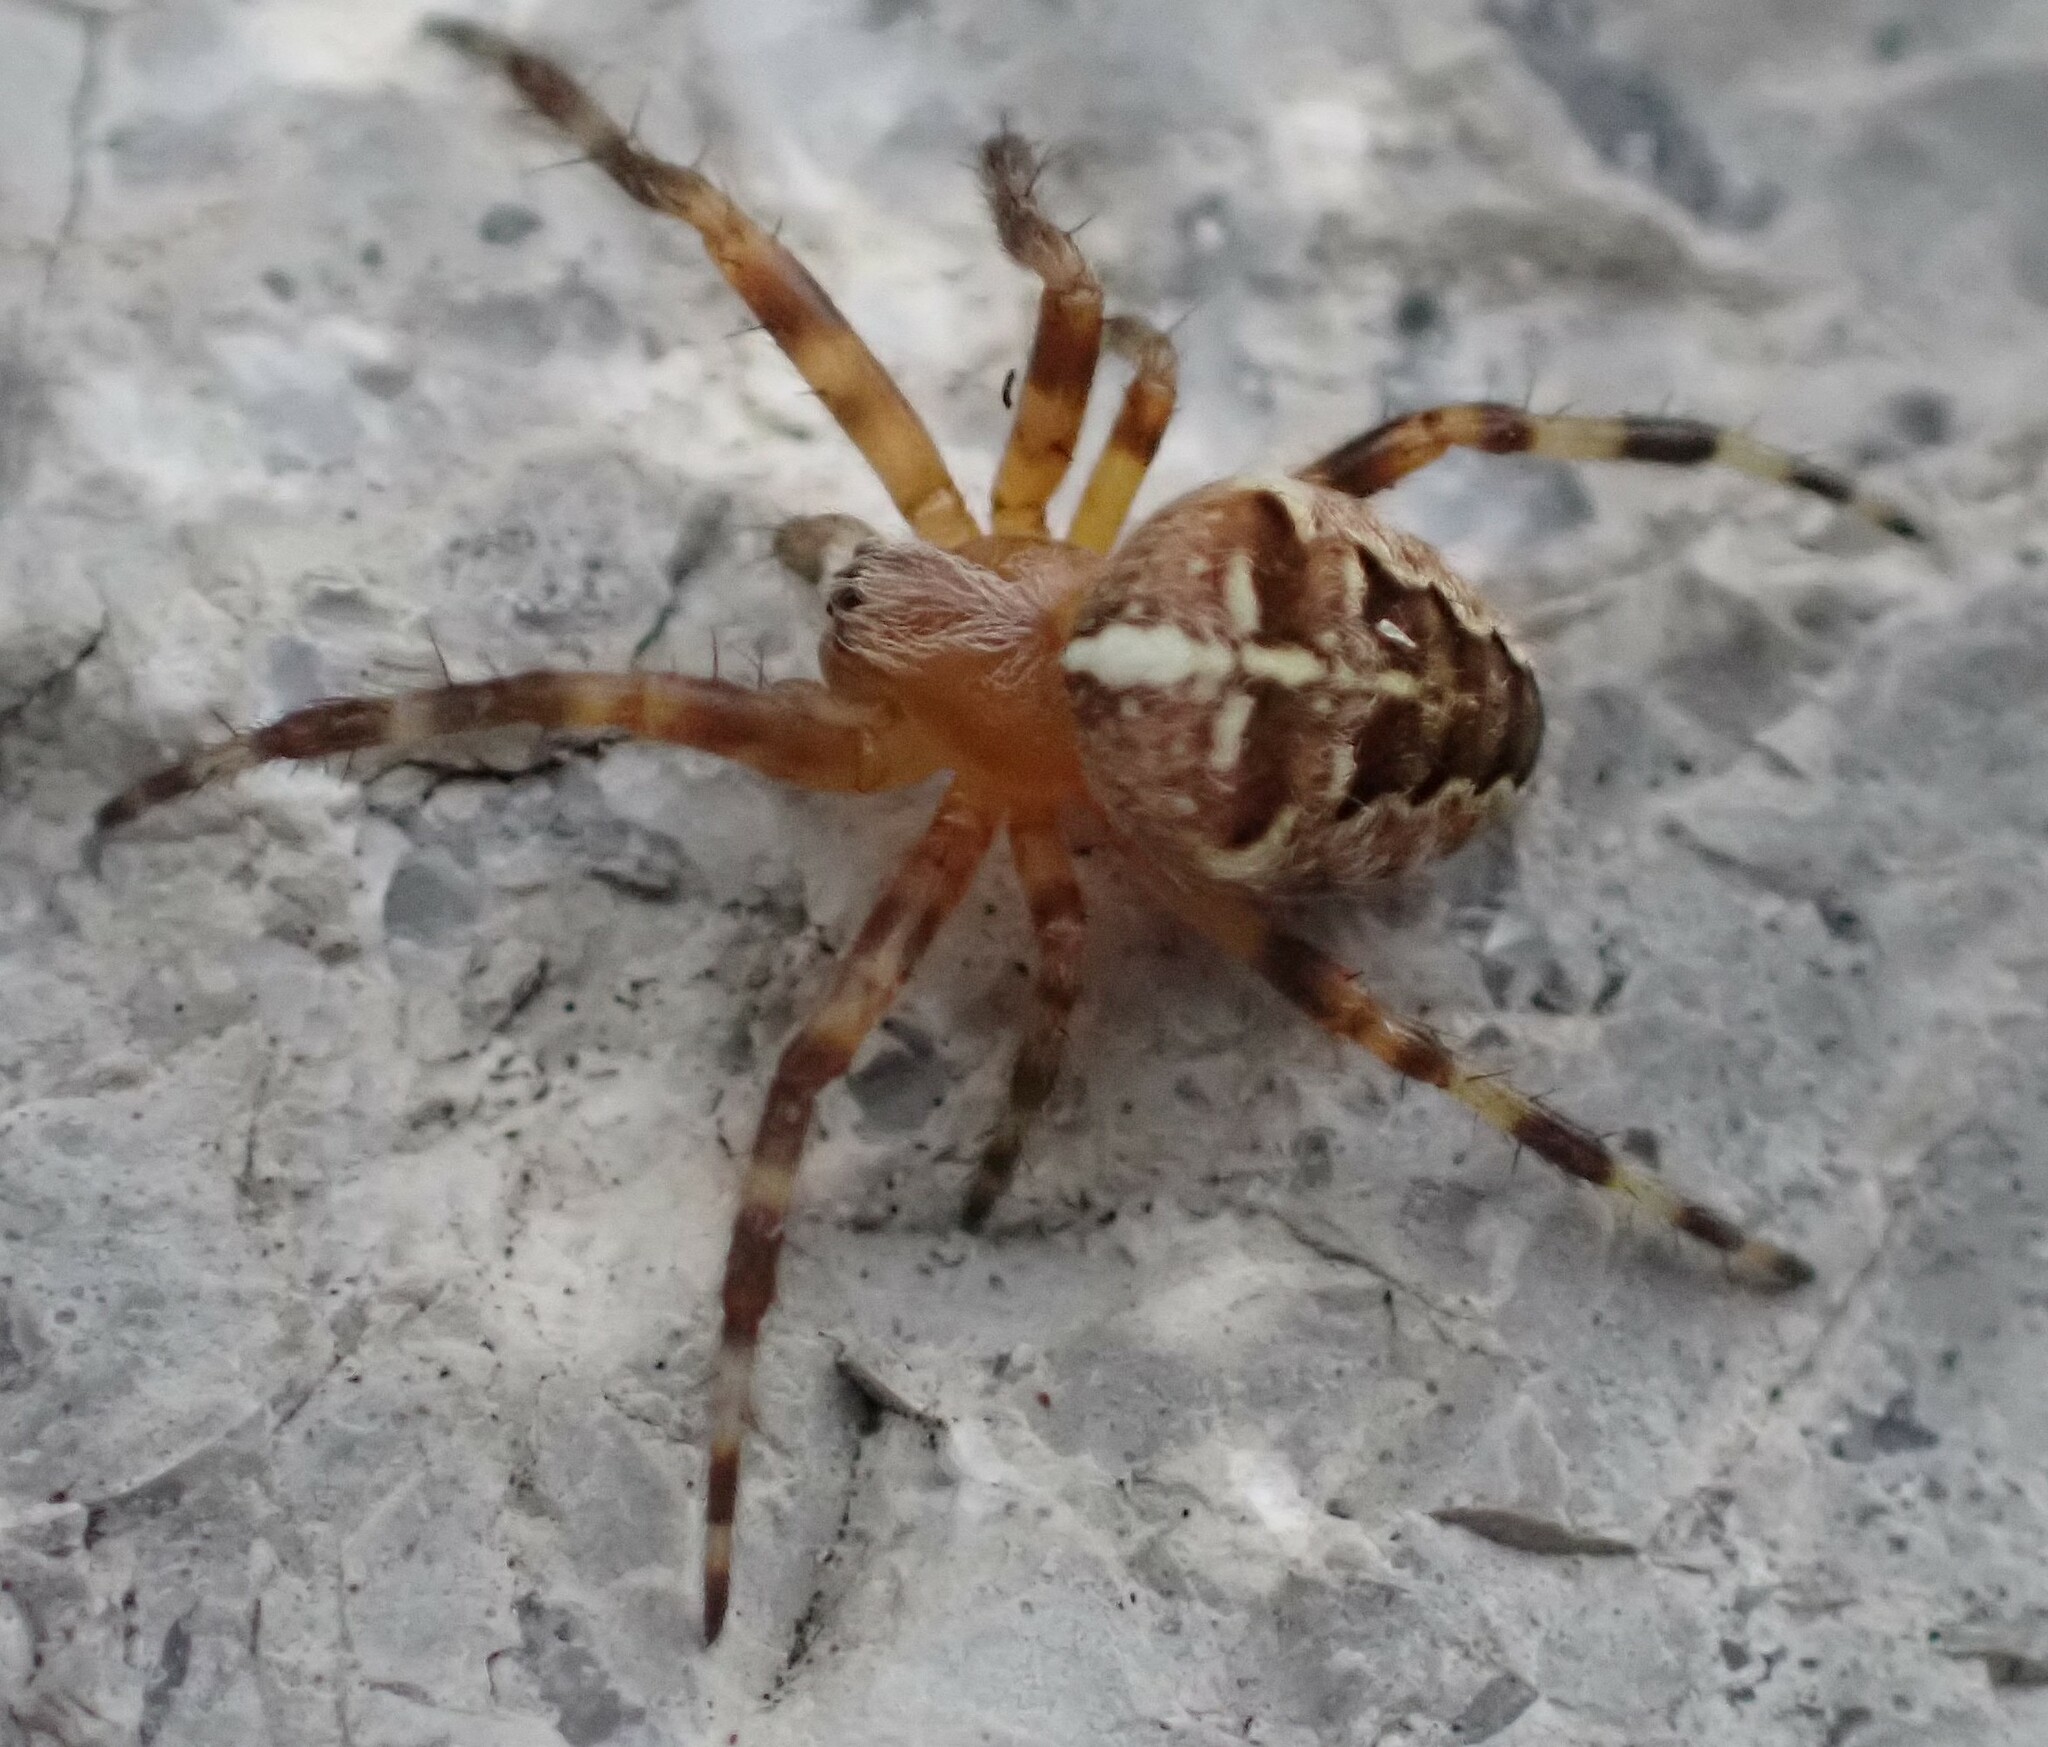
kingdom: Animalia
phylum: Arthropoda
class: Arachnida
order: Araneae
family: Araneidae
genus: Araneus
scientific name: Araneus diadematus
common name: Cross orbweaver
